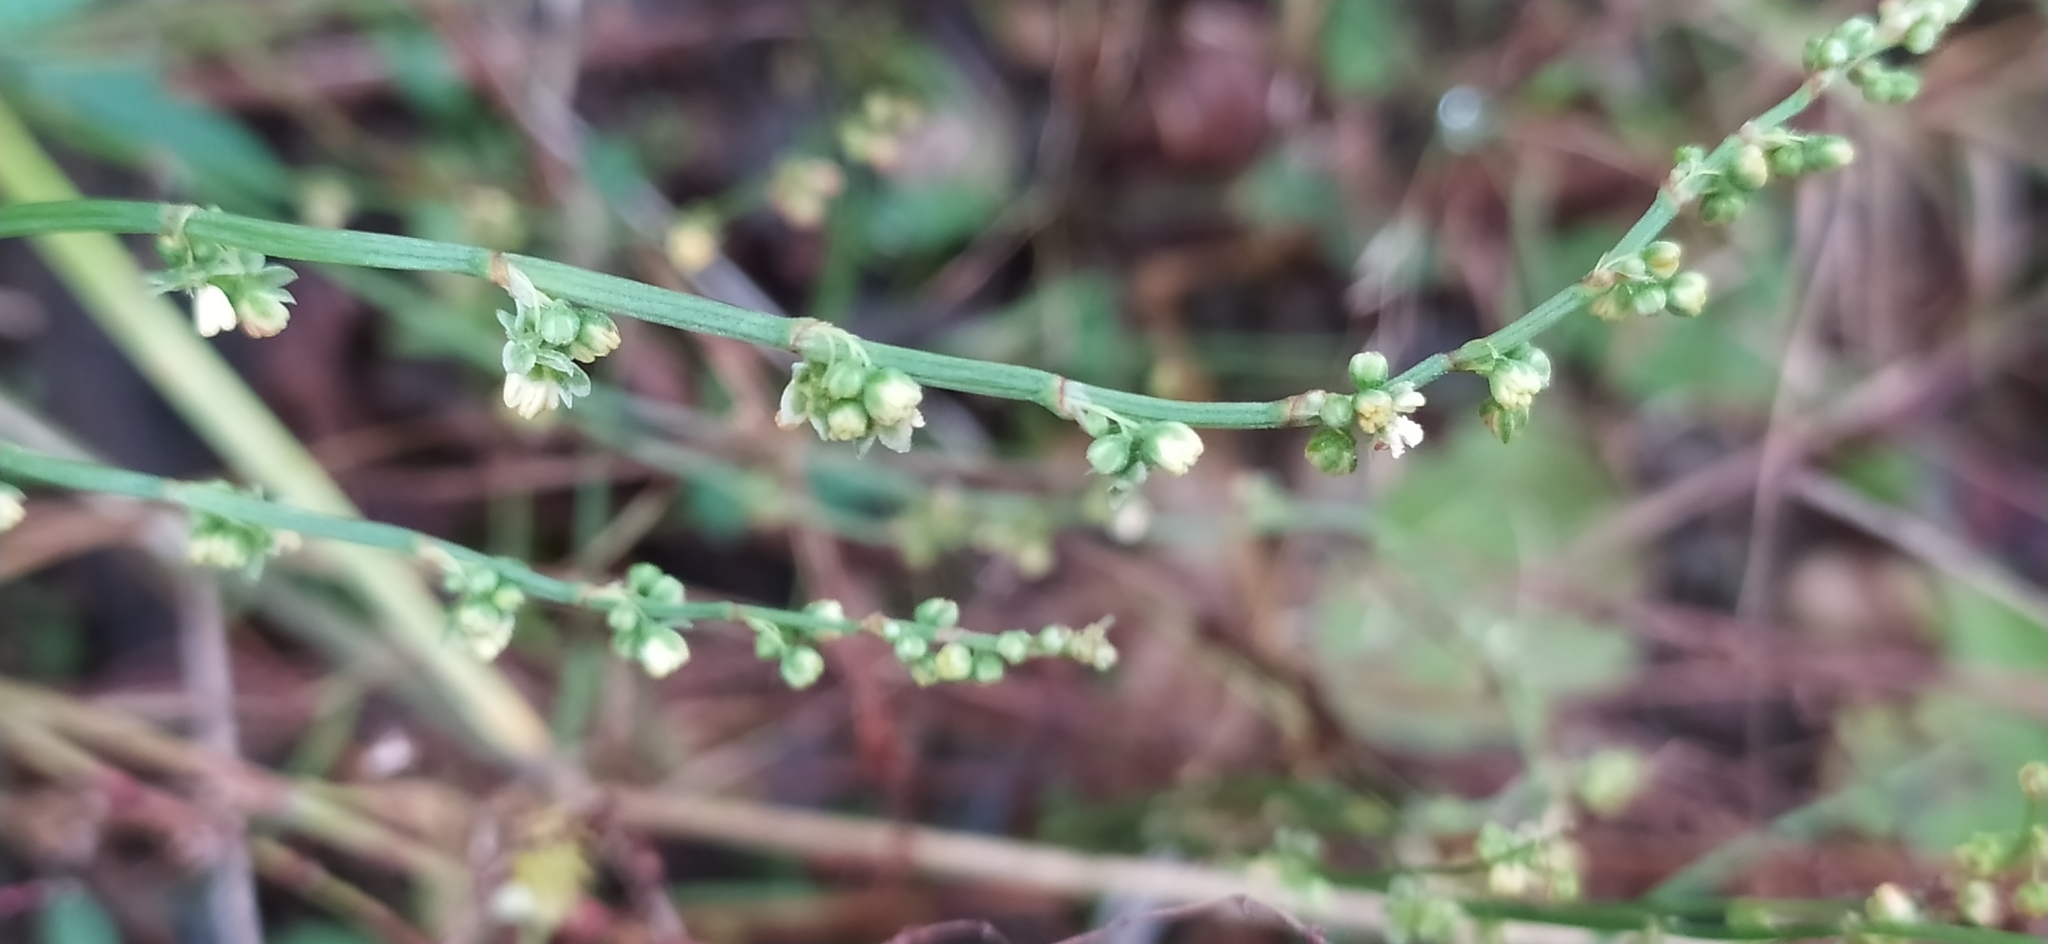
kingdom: Plantae
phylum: Tracheophyta
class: Magnoliopsida
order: Caryophyllales
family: Polygonaceae
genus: Rumex
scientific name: Rumex acetosella
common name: Common sheep sorrel
